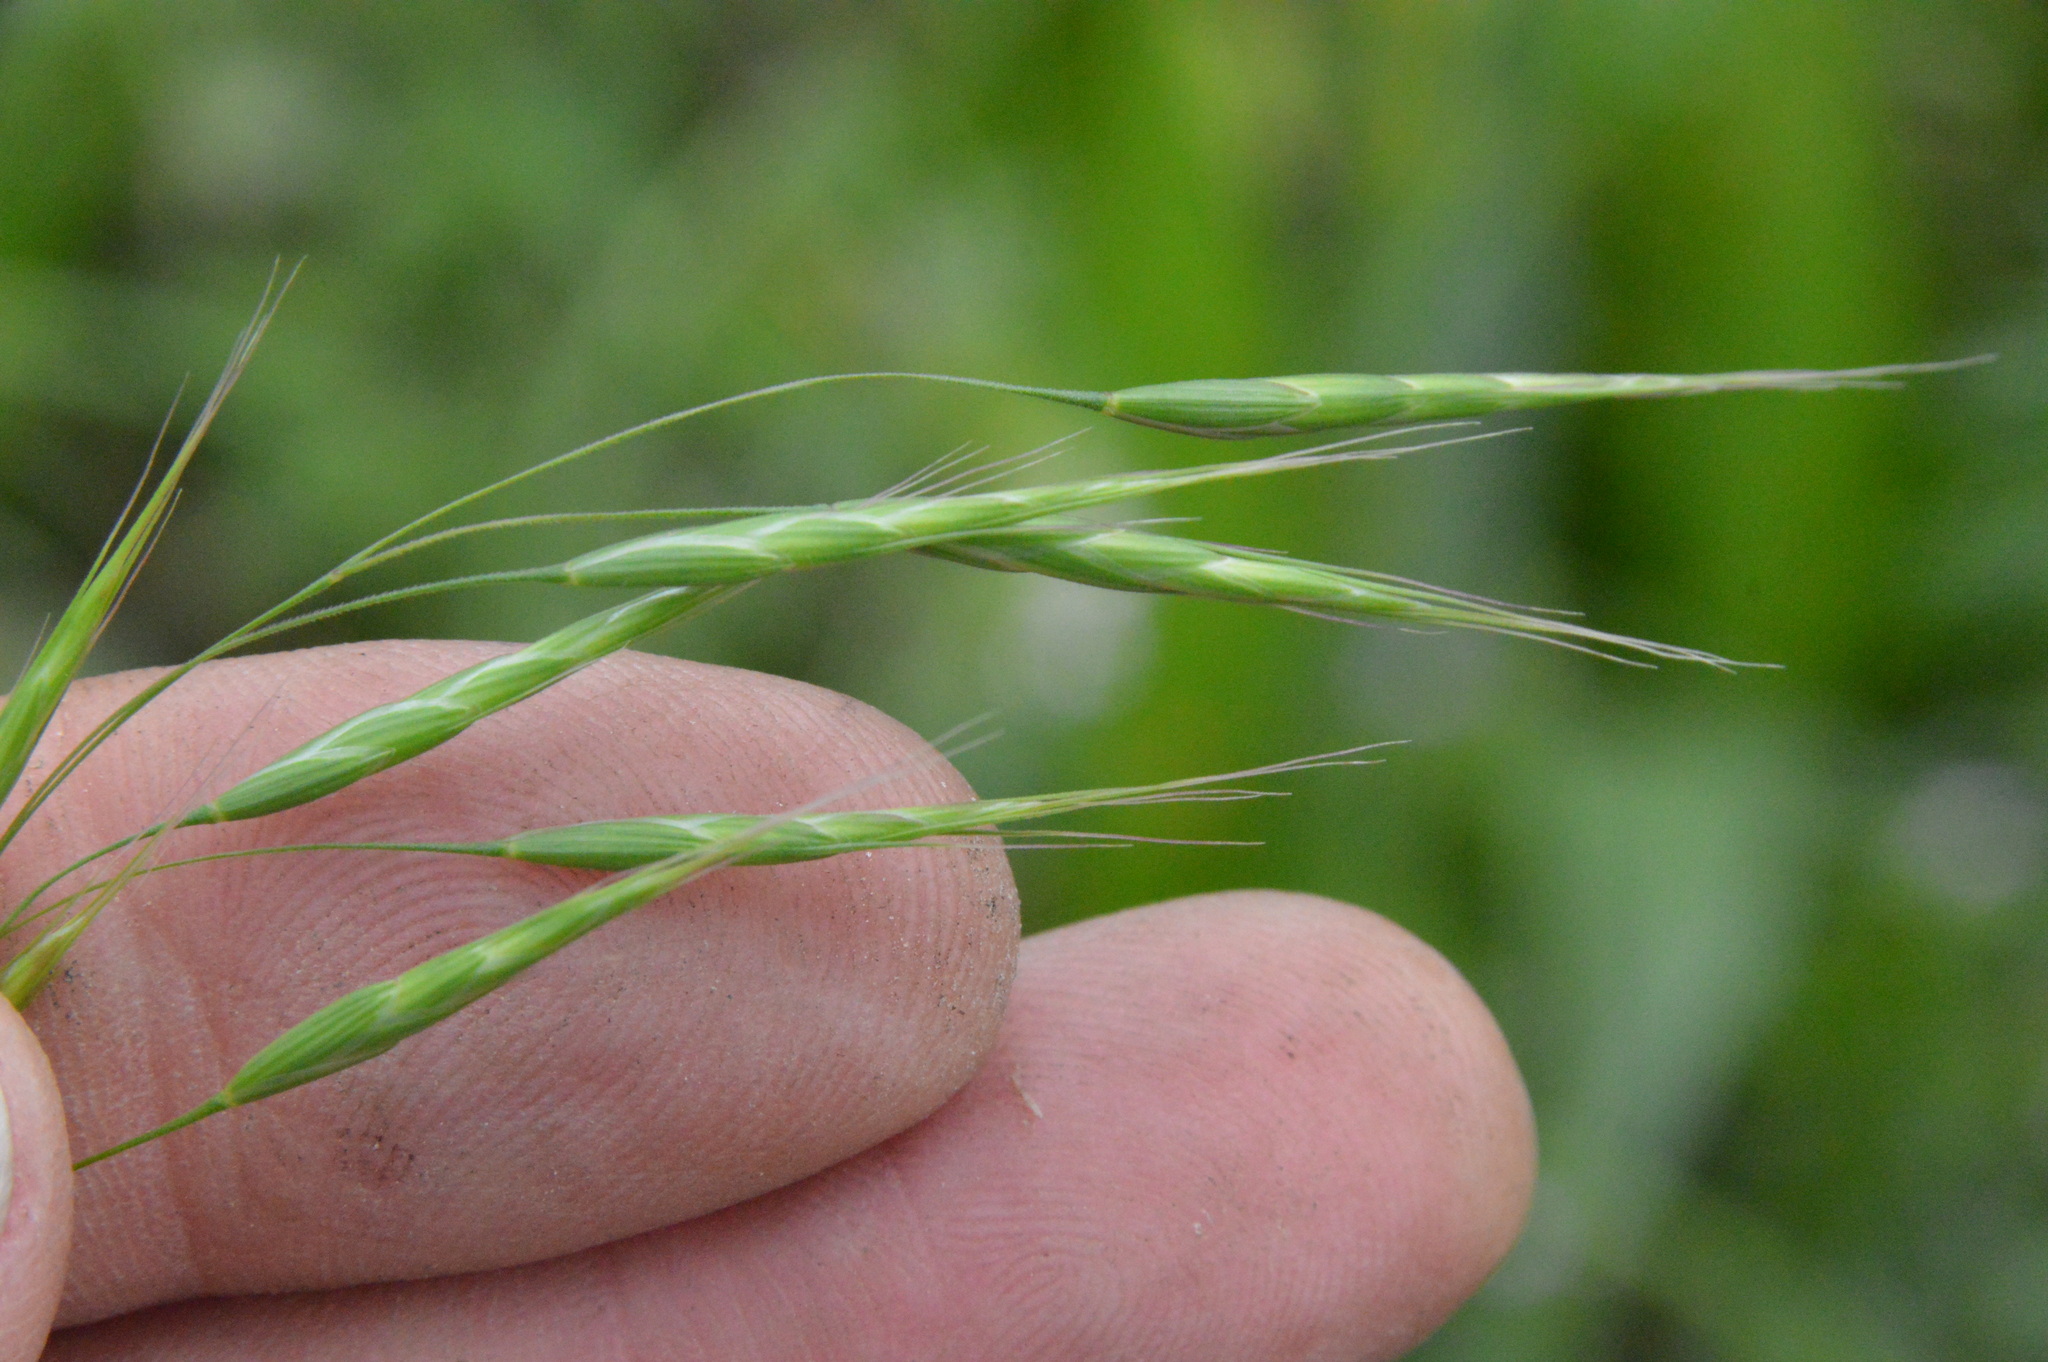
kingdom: Plantae
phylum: Tracheophyta
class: Liliopsida
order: Poales
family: Poaceae
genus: Bromus
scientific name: Bromus japonicus
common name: Japanese brome
